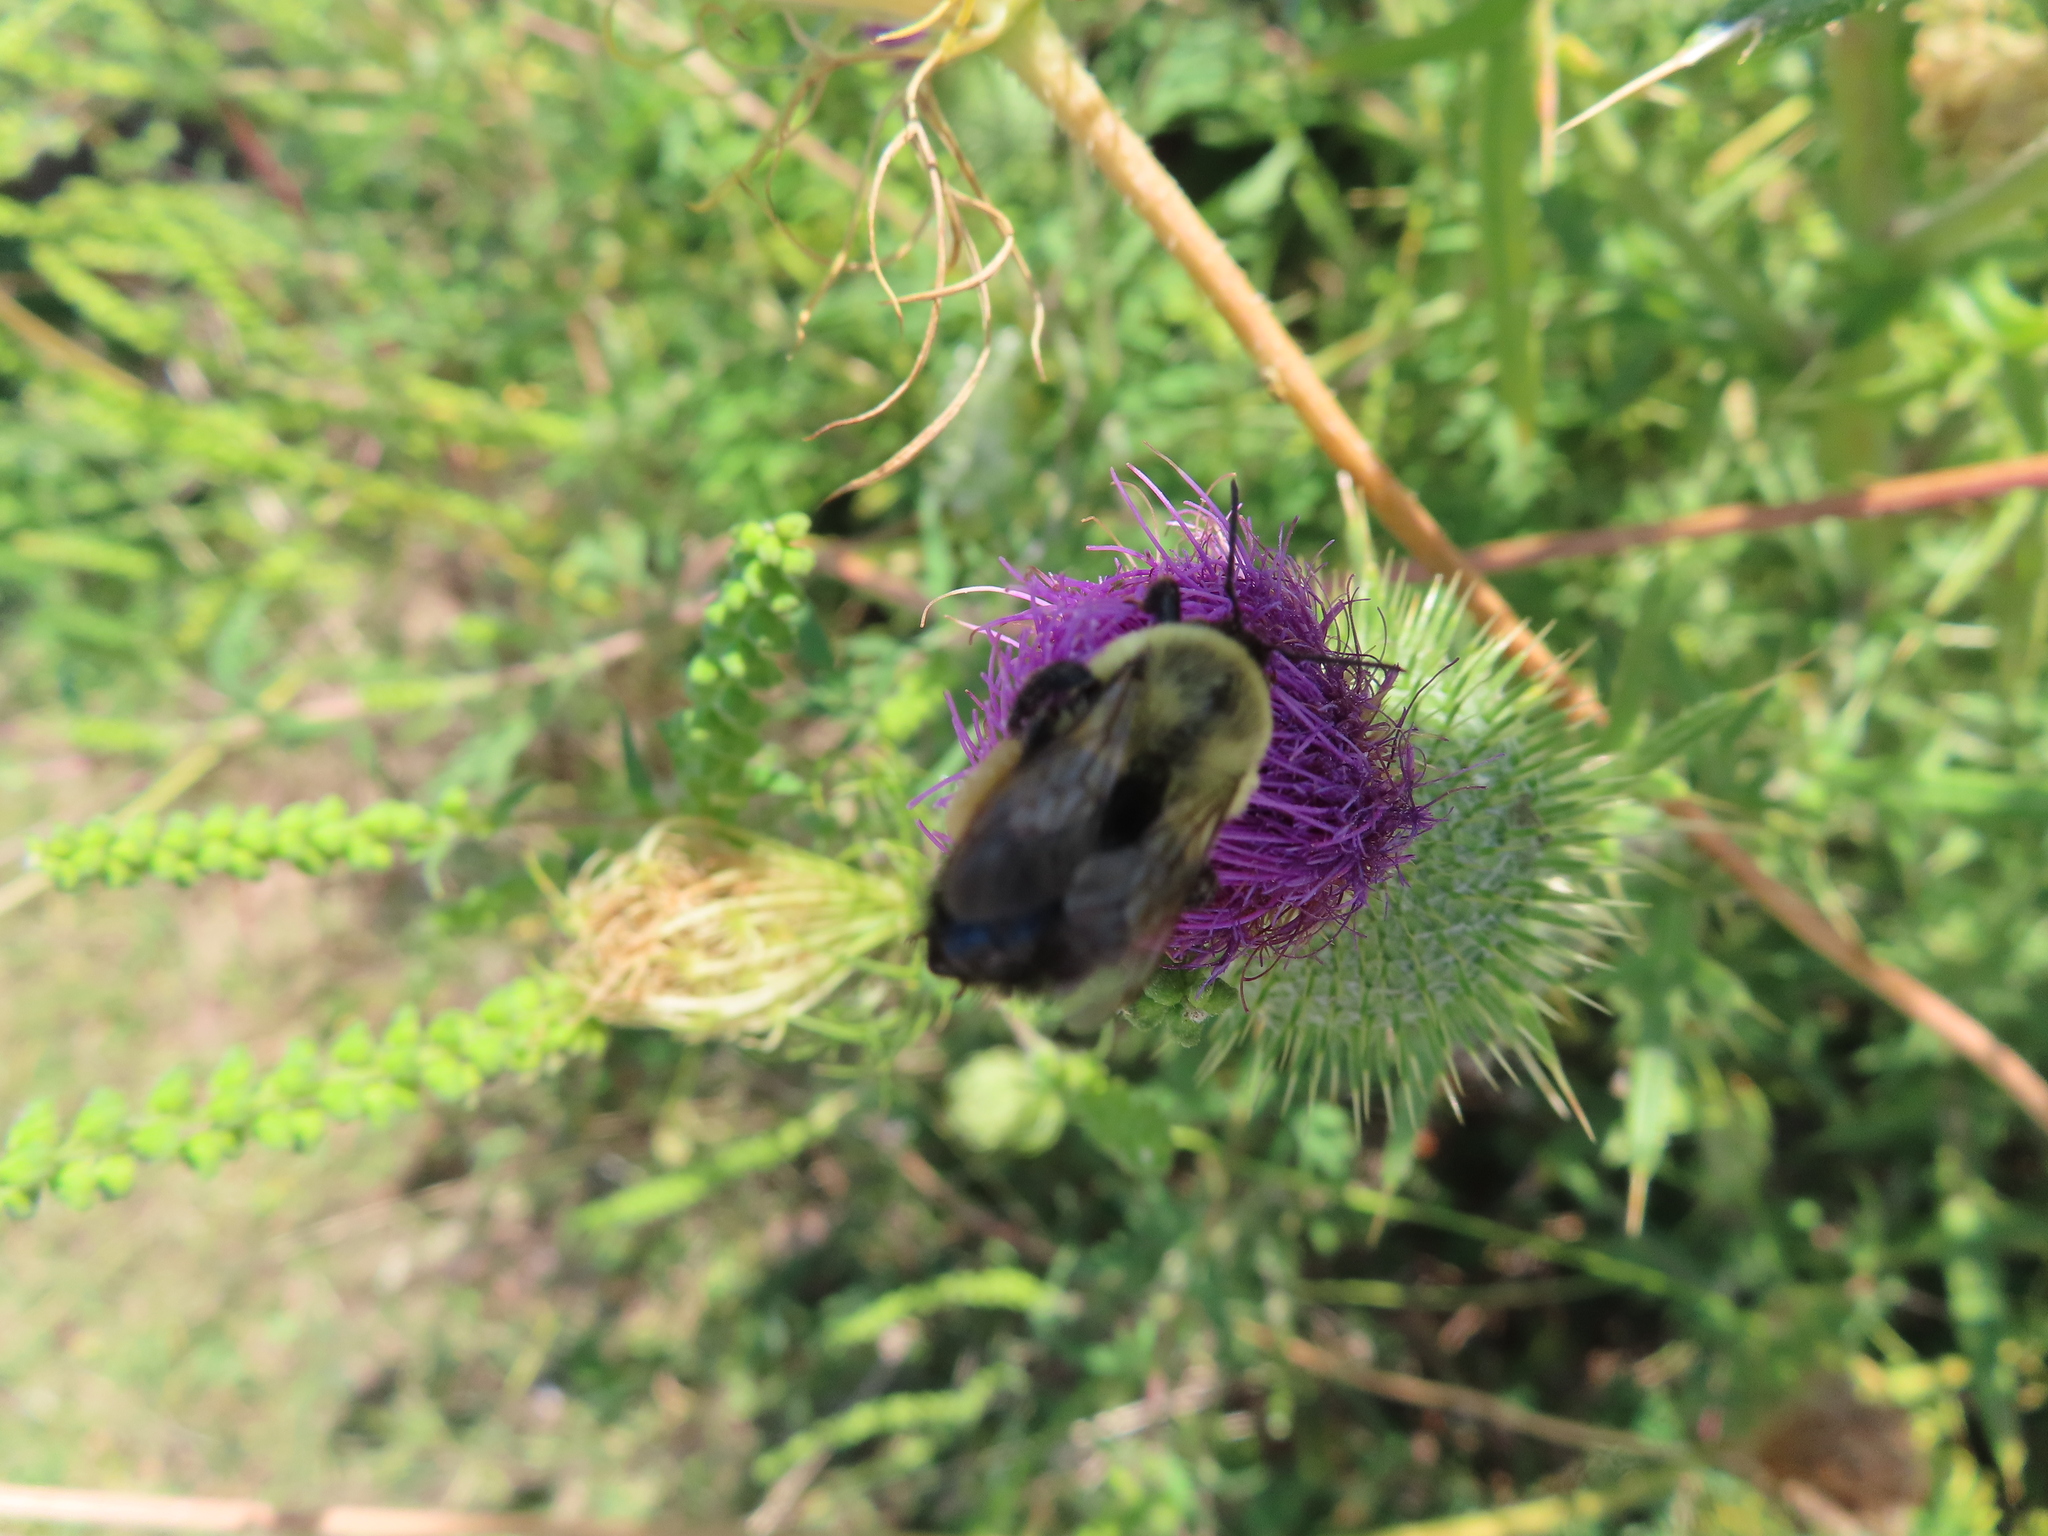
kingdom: Animalia
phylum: Arthropoda
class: Insecta
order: Hymenoptera
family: Apidae
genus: Bombus
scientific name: Bombus impatiens
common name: Common eastern bumble bee
